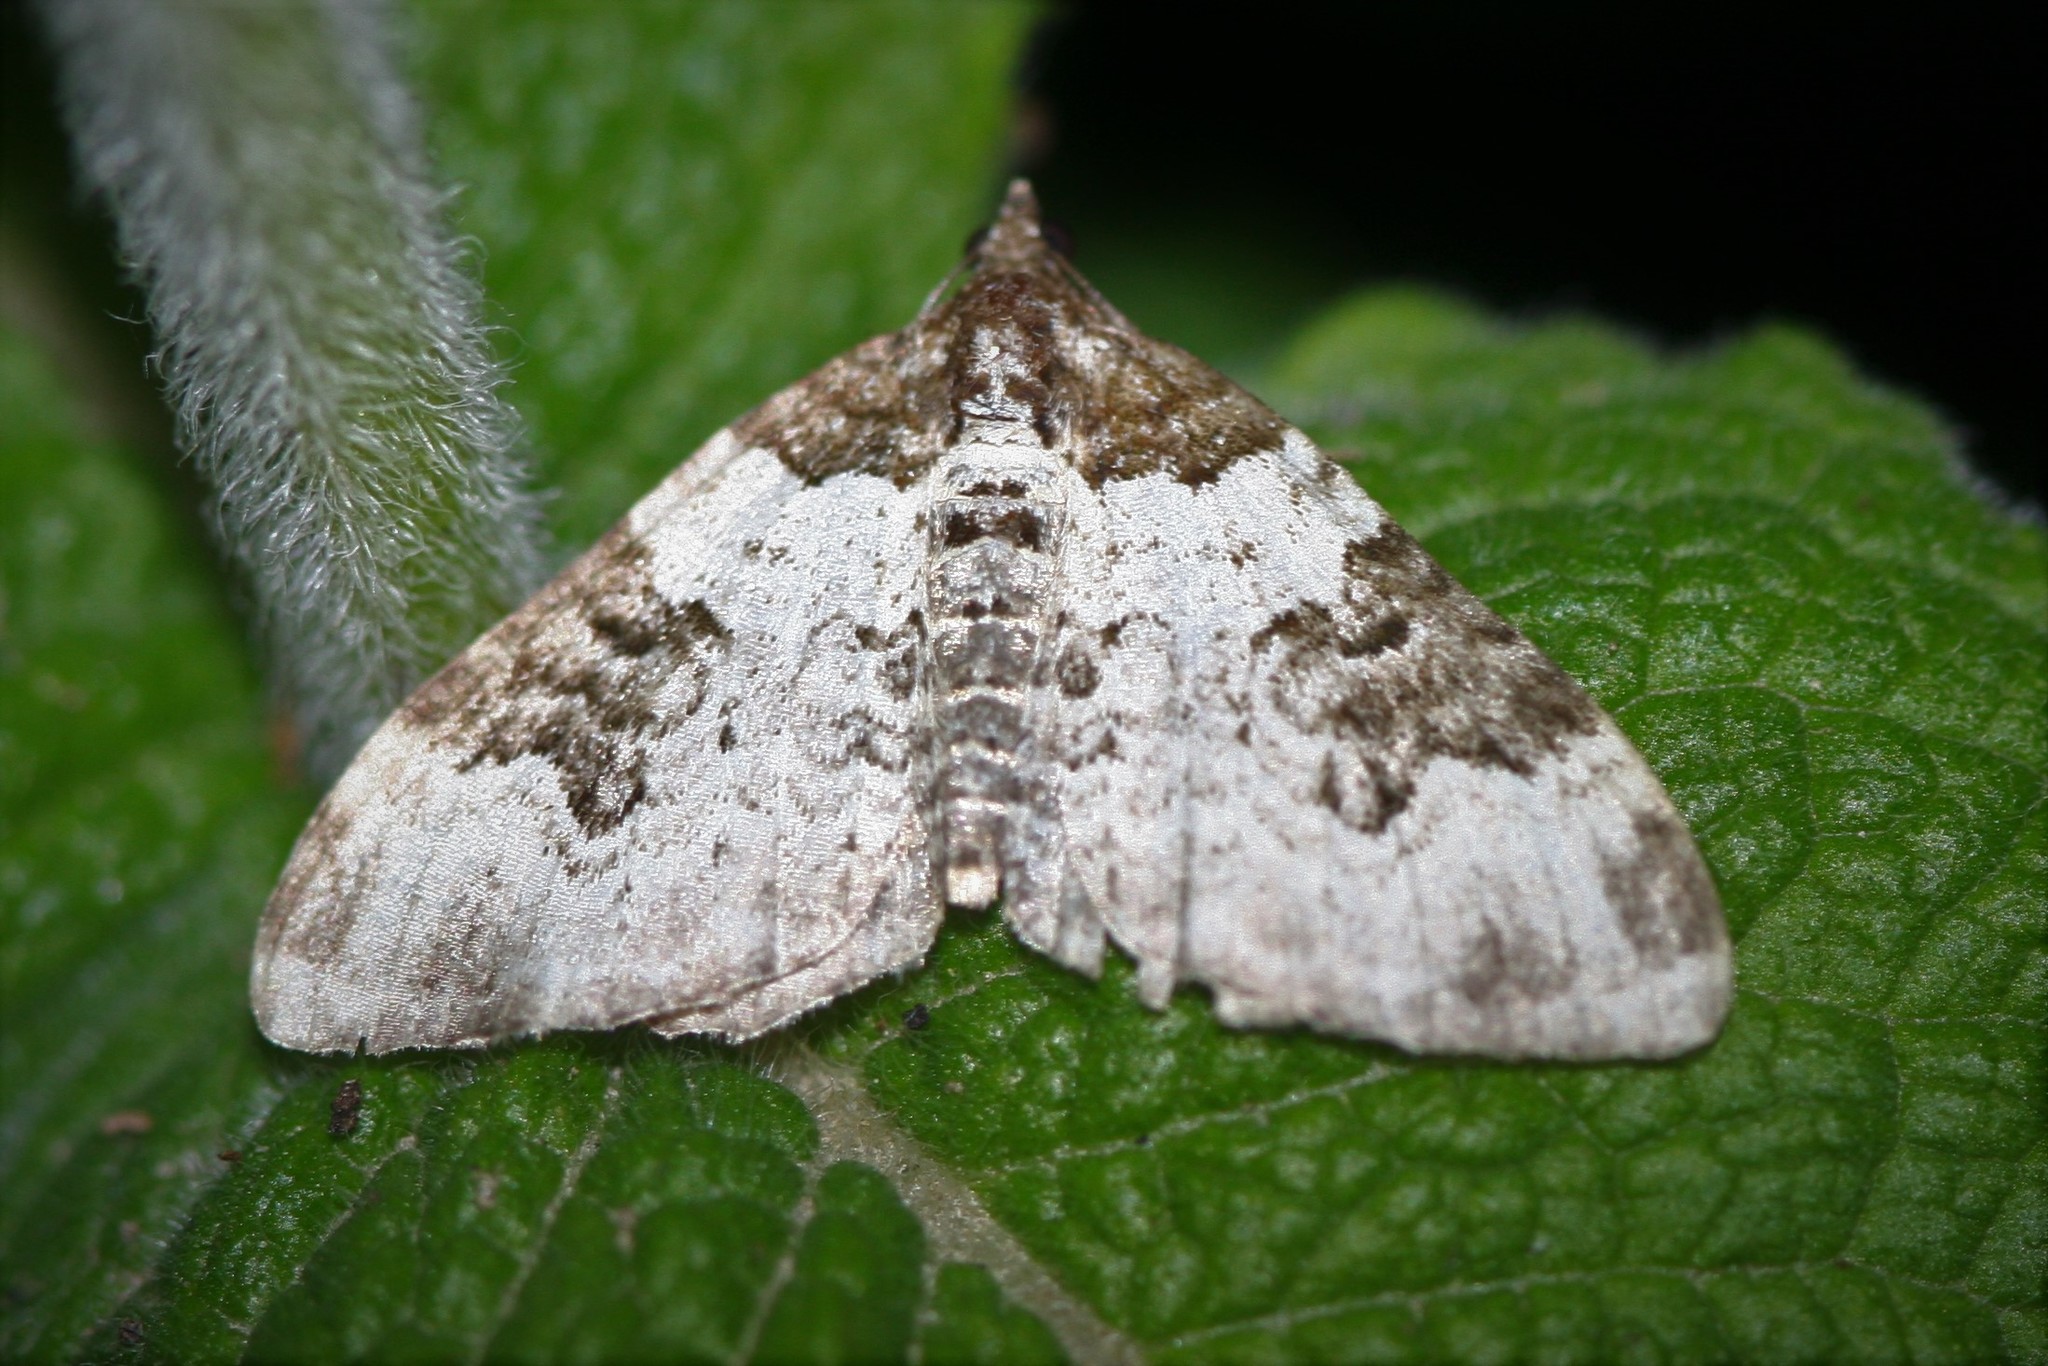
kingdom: Animalia
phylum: Arthropoda
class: Insecta
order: Lepidoptera
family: Geometridae
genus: Xanthorhoe
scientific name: Xanthorhoe fluctuata
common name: Garden carpet
